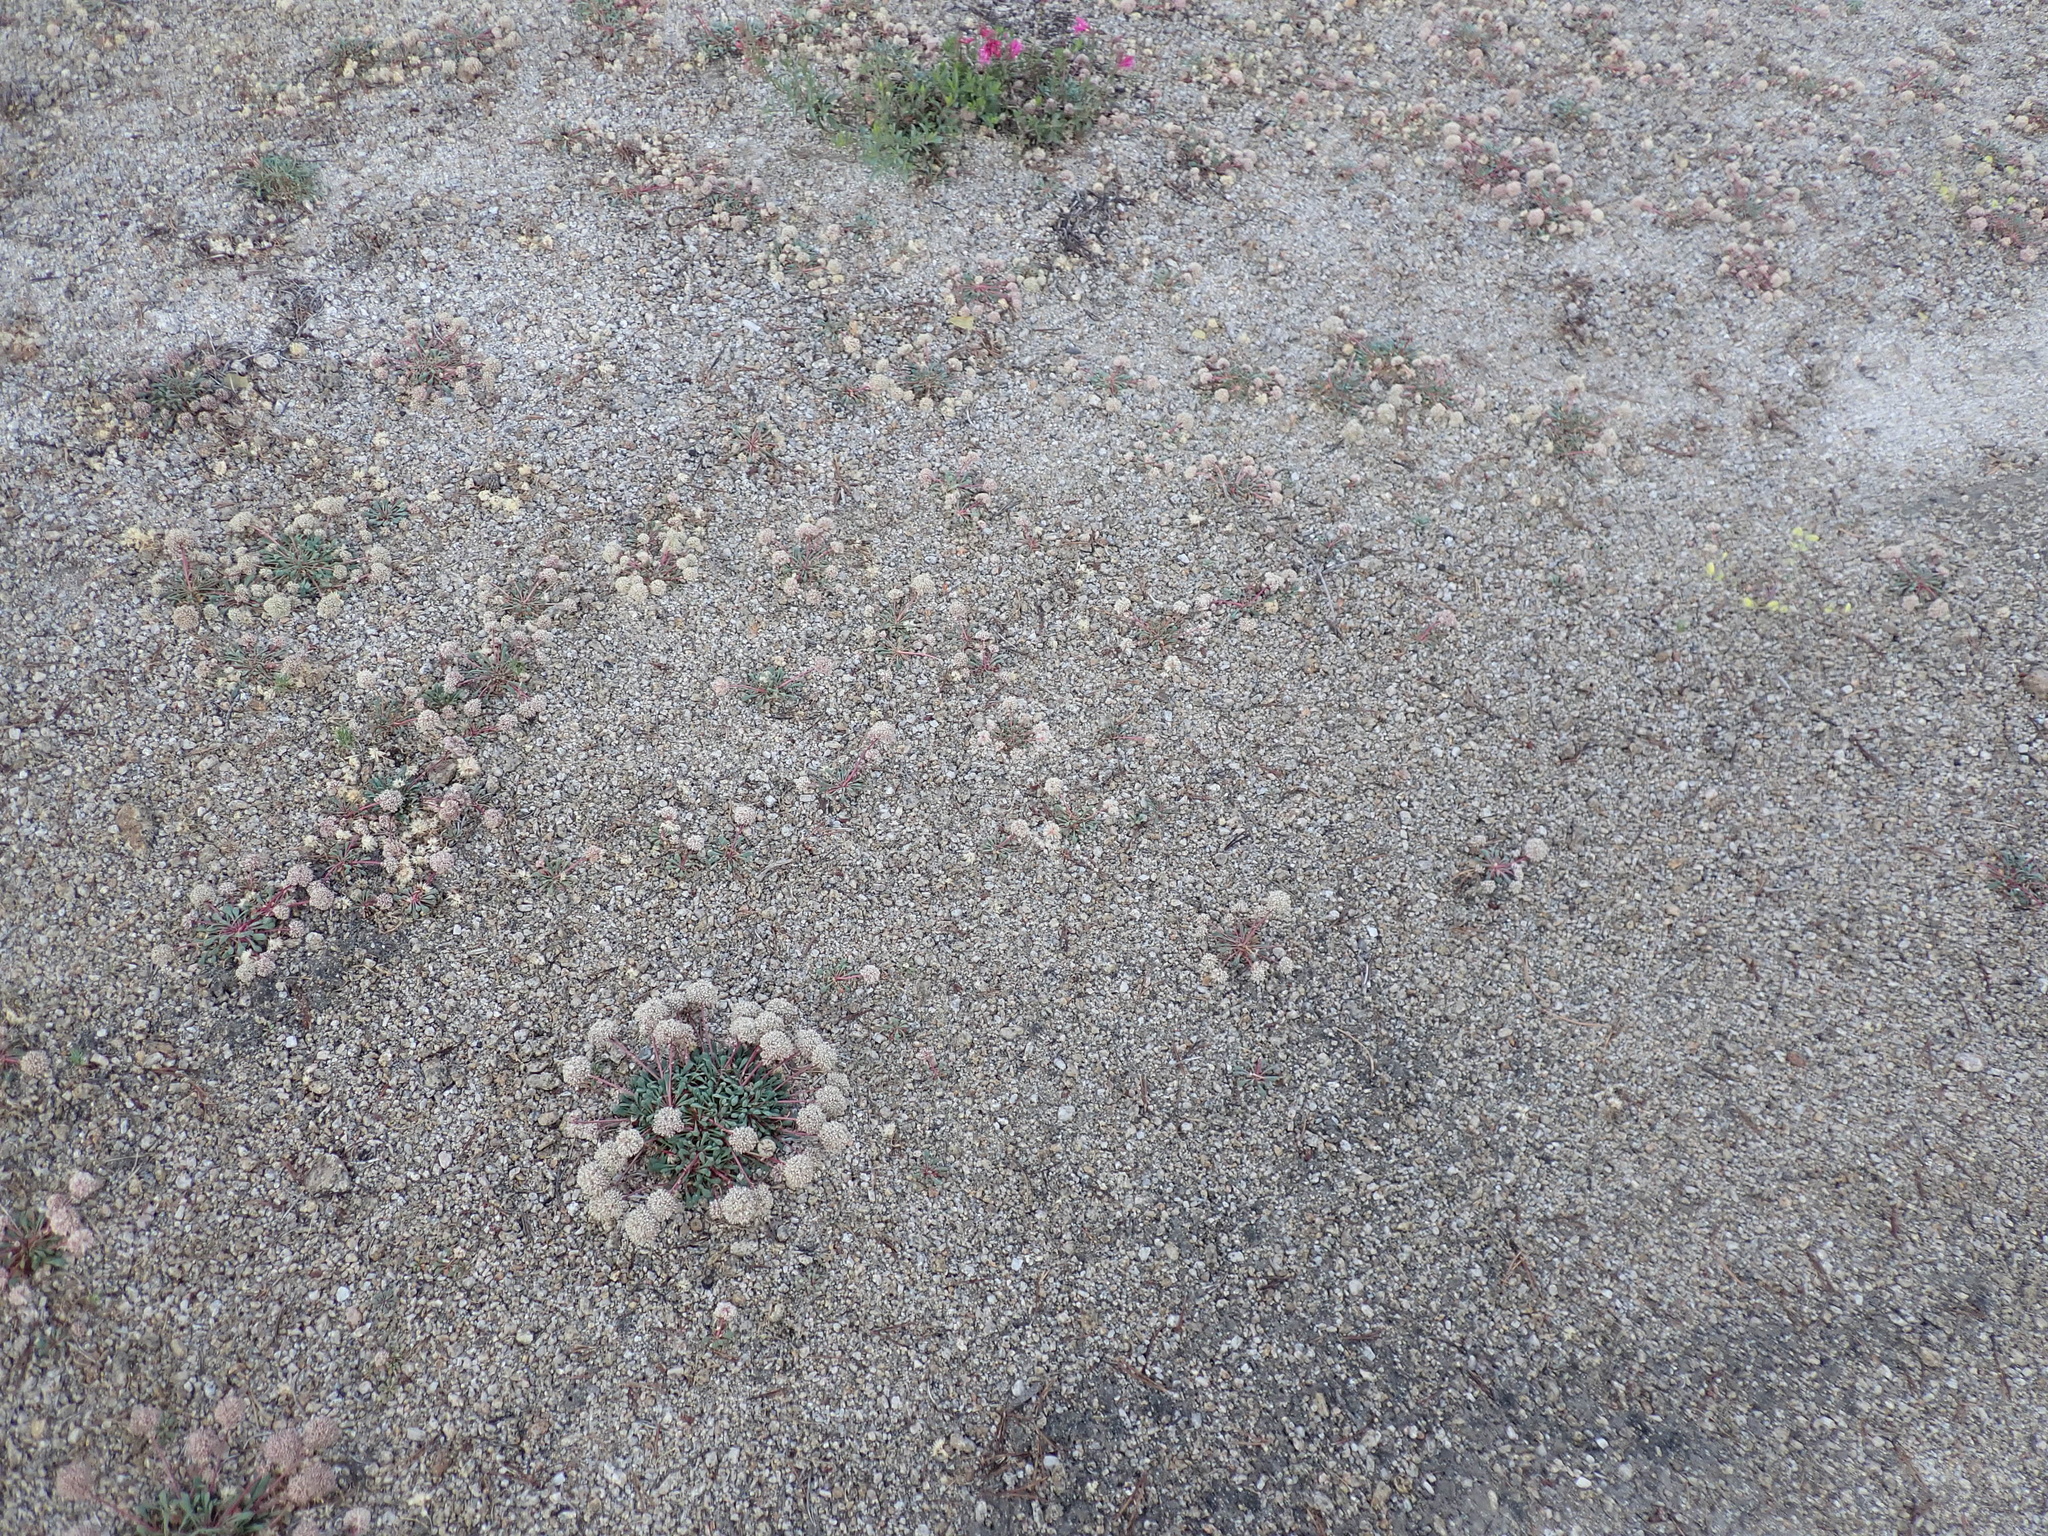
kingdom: Plantae
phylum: Tracheophyta
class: Magnoliopsida
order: Caryophyllales
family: Montiaceae
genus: Calyptridium
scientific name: Calyptridium monospermum
